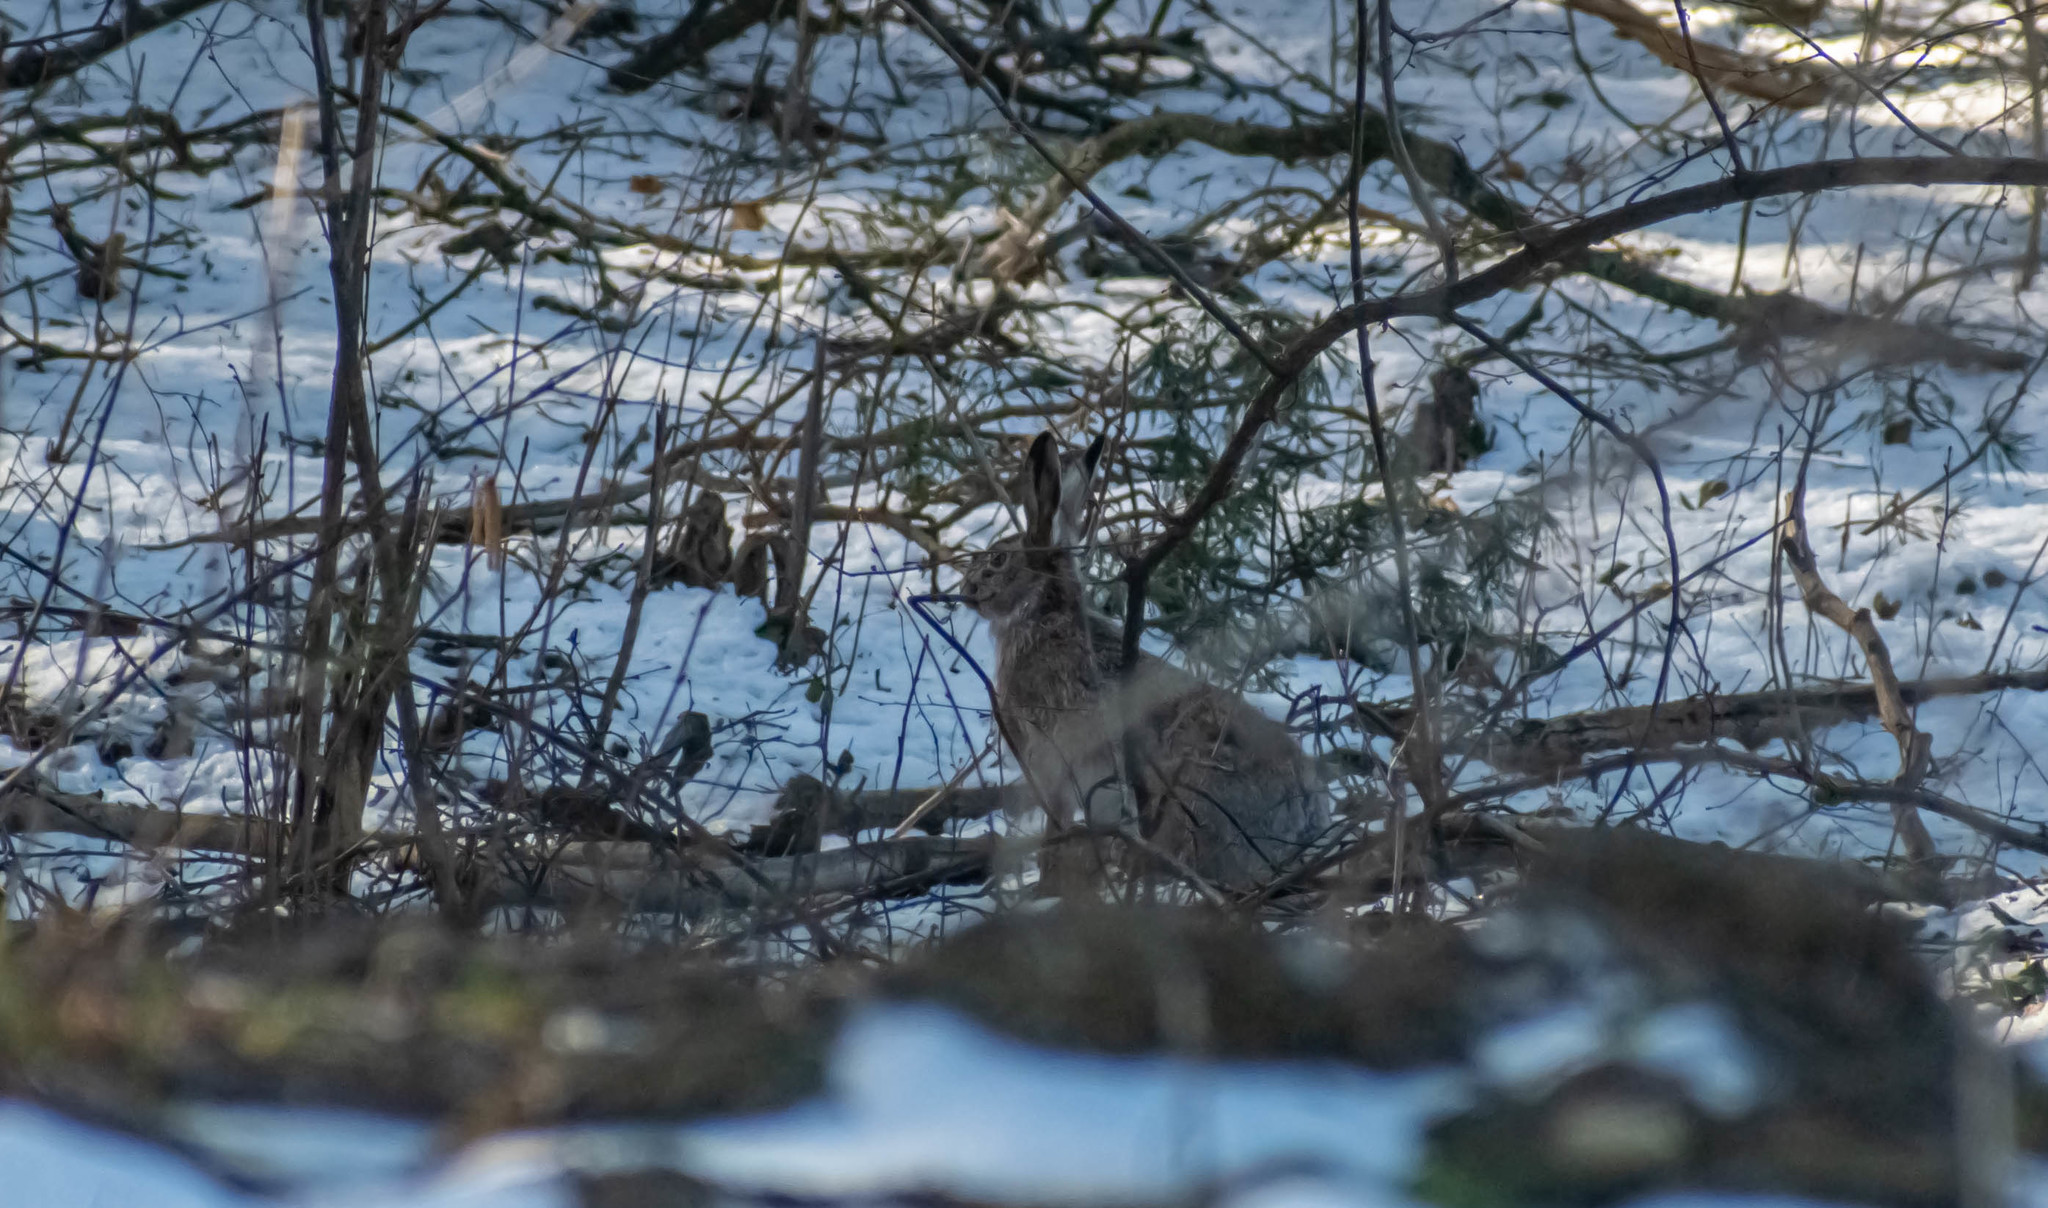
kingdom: Animalia
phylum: Chordata
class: Mammalia
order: Lagomorpha
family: Leporidae
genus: Lepus
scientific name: Lepus europaeus
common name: European hare
